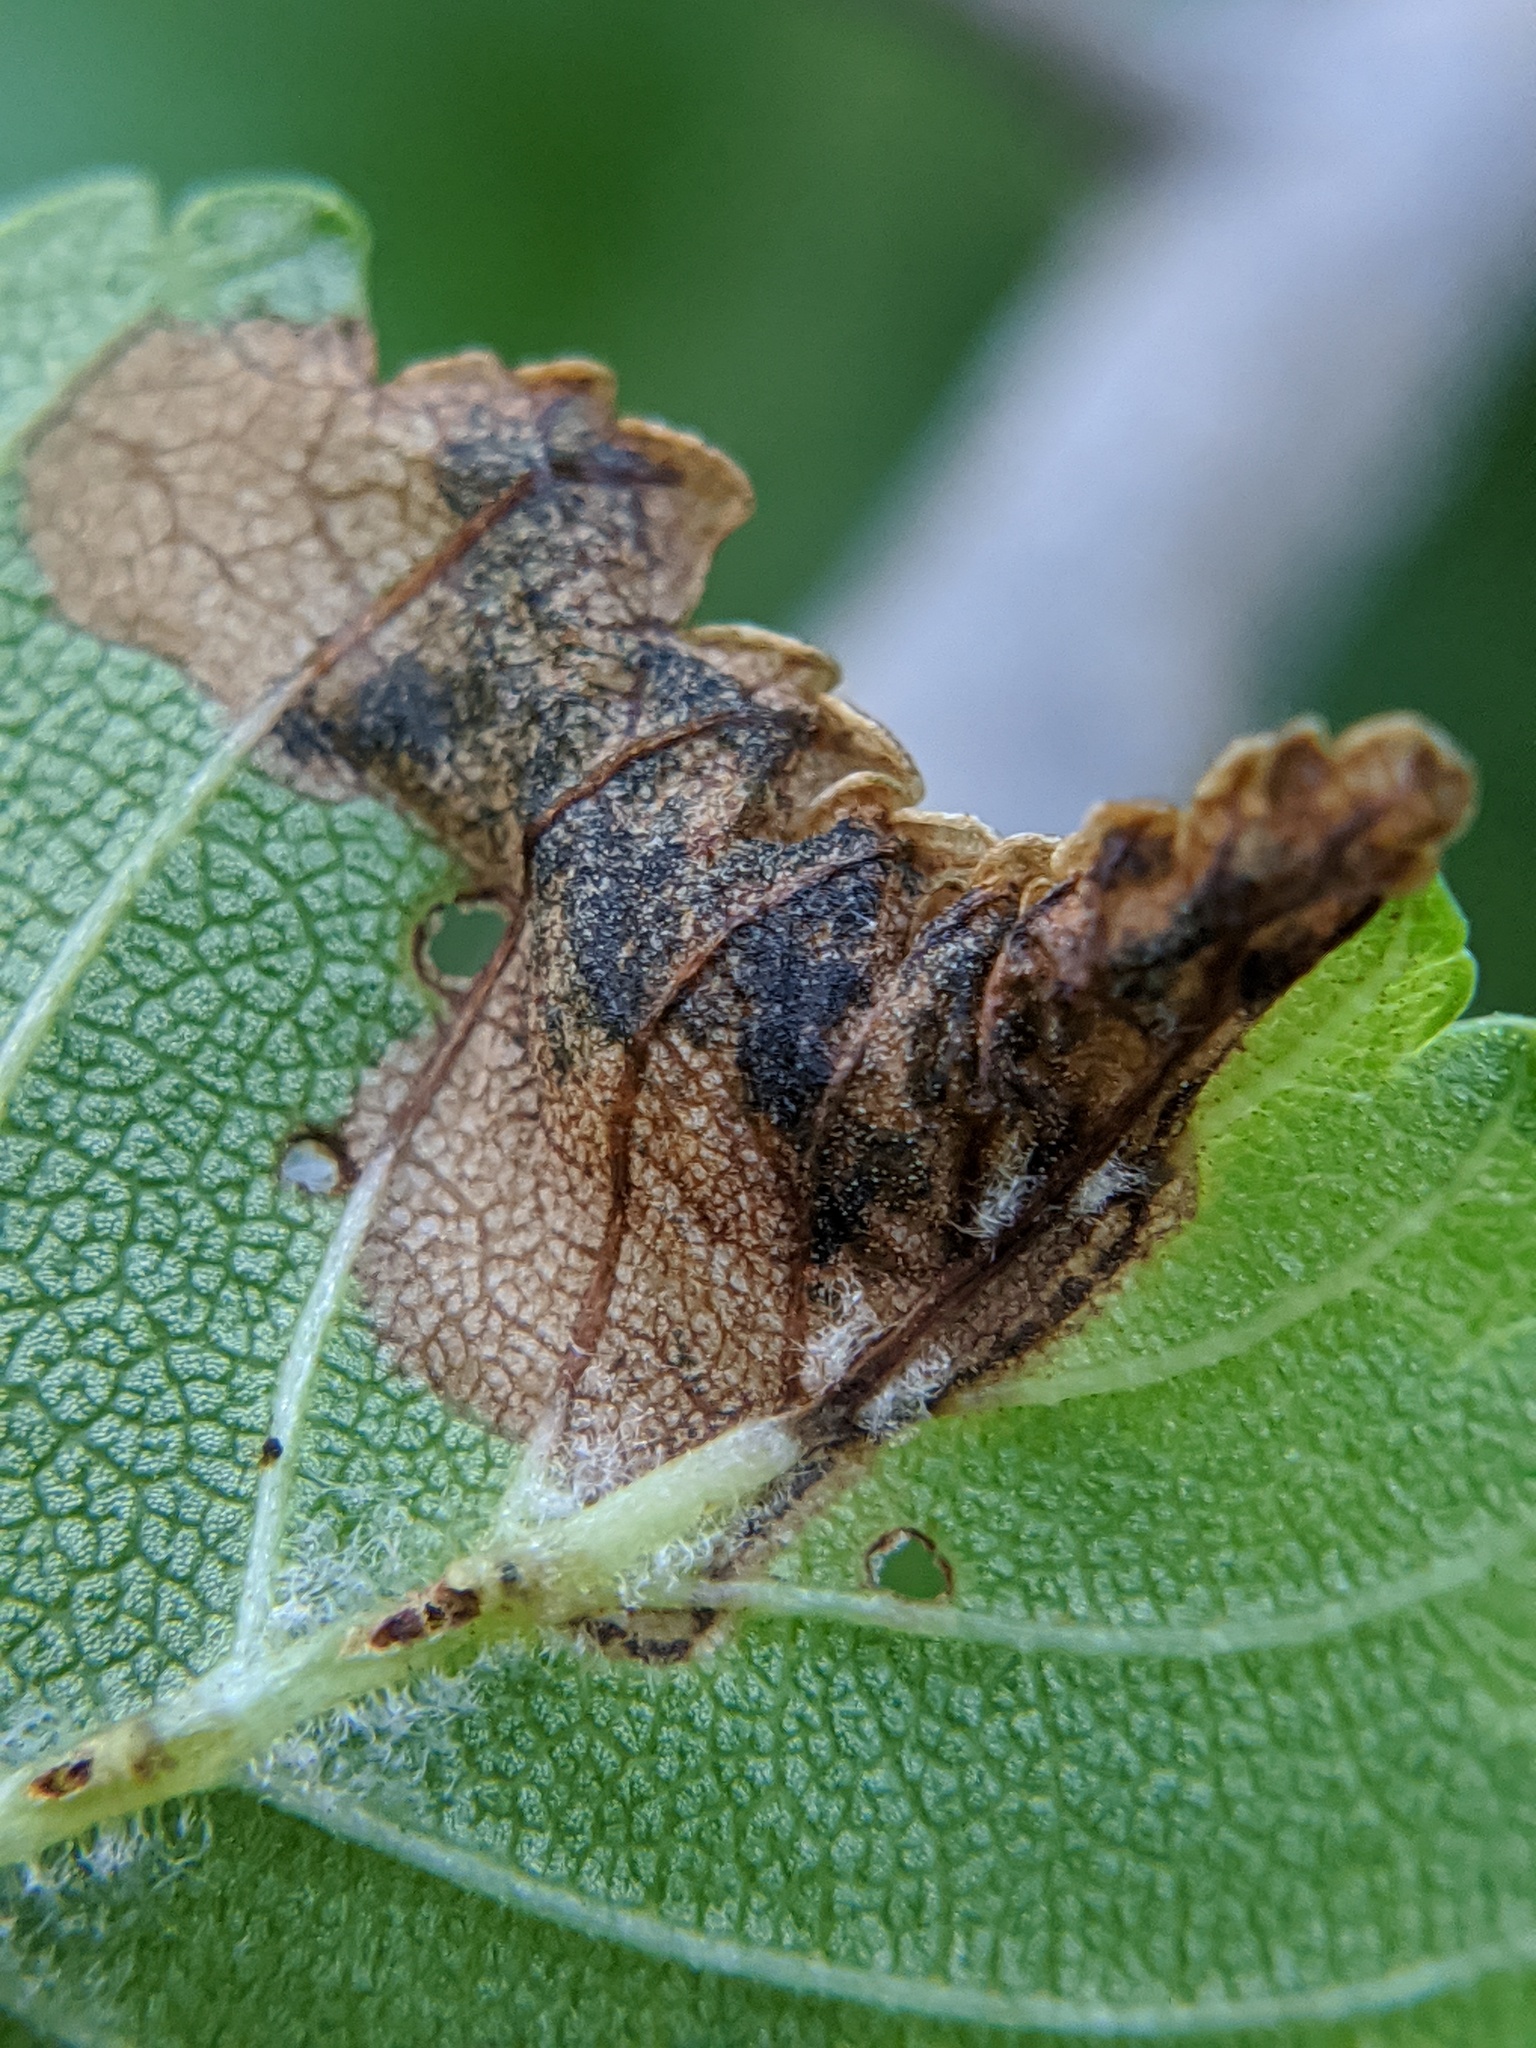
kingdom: Animalia
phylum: Arthropoda
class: Insecta
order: Coleoptera
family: Curculionidae
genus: Orchestes
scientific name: Orchestes steppensis
